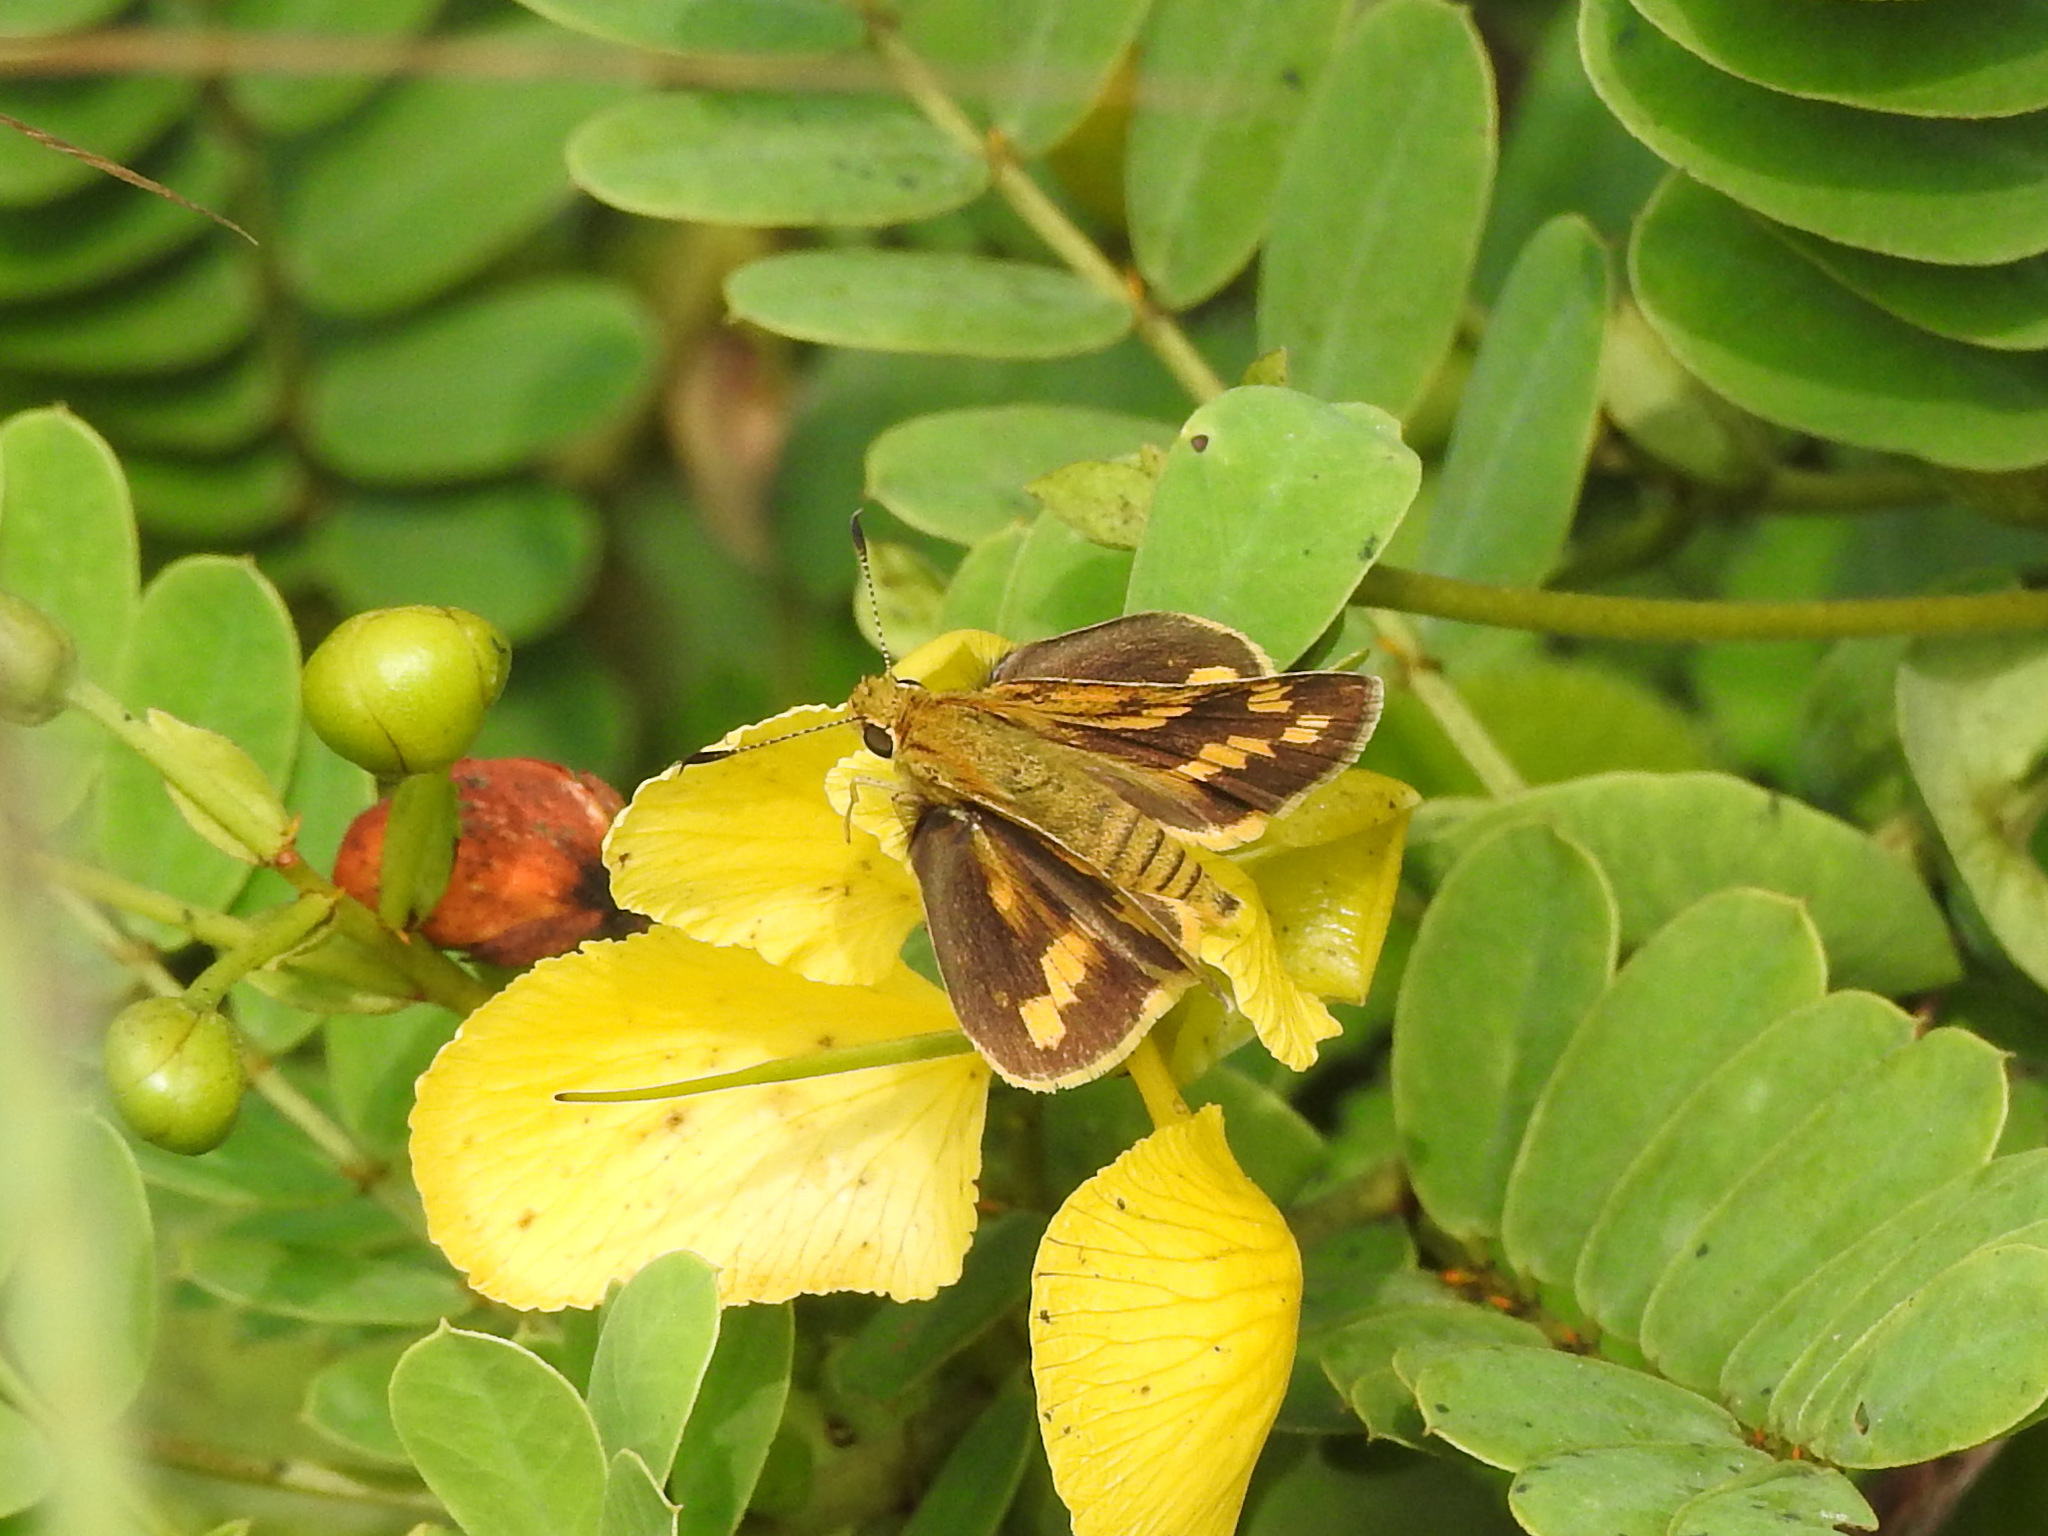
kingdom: Plantae
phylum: Tracheophyta
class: Magnoliopsida
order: Fabales
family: Fabaceae
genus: Senna
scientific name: Senna auriculata
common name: Tanner's cassia
